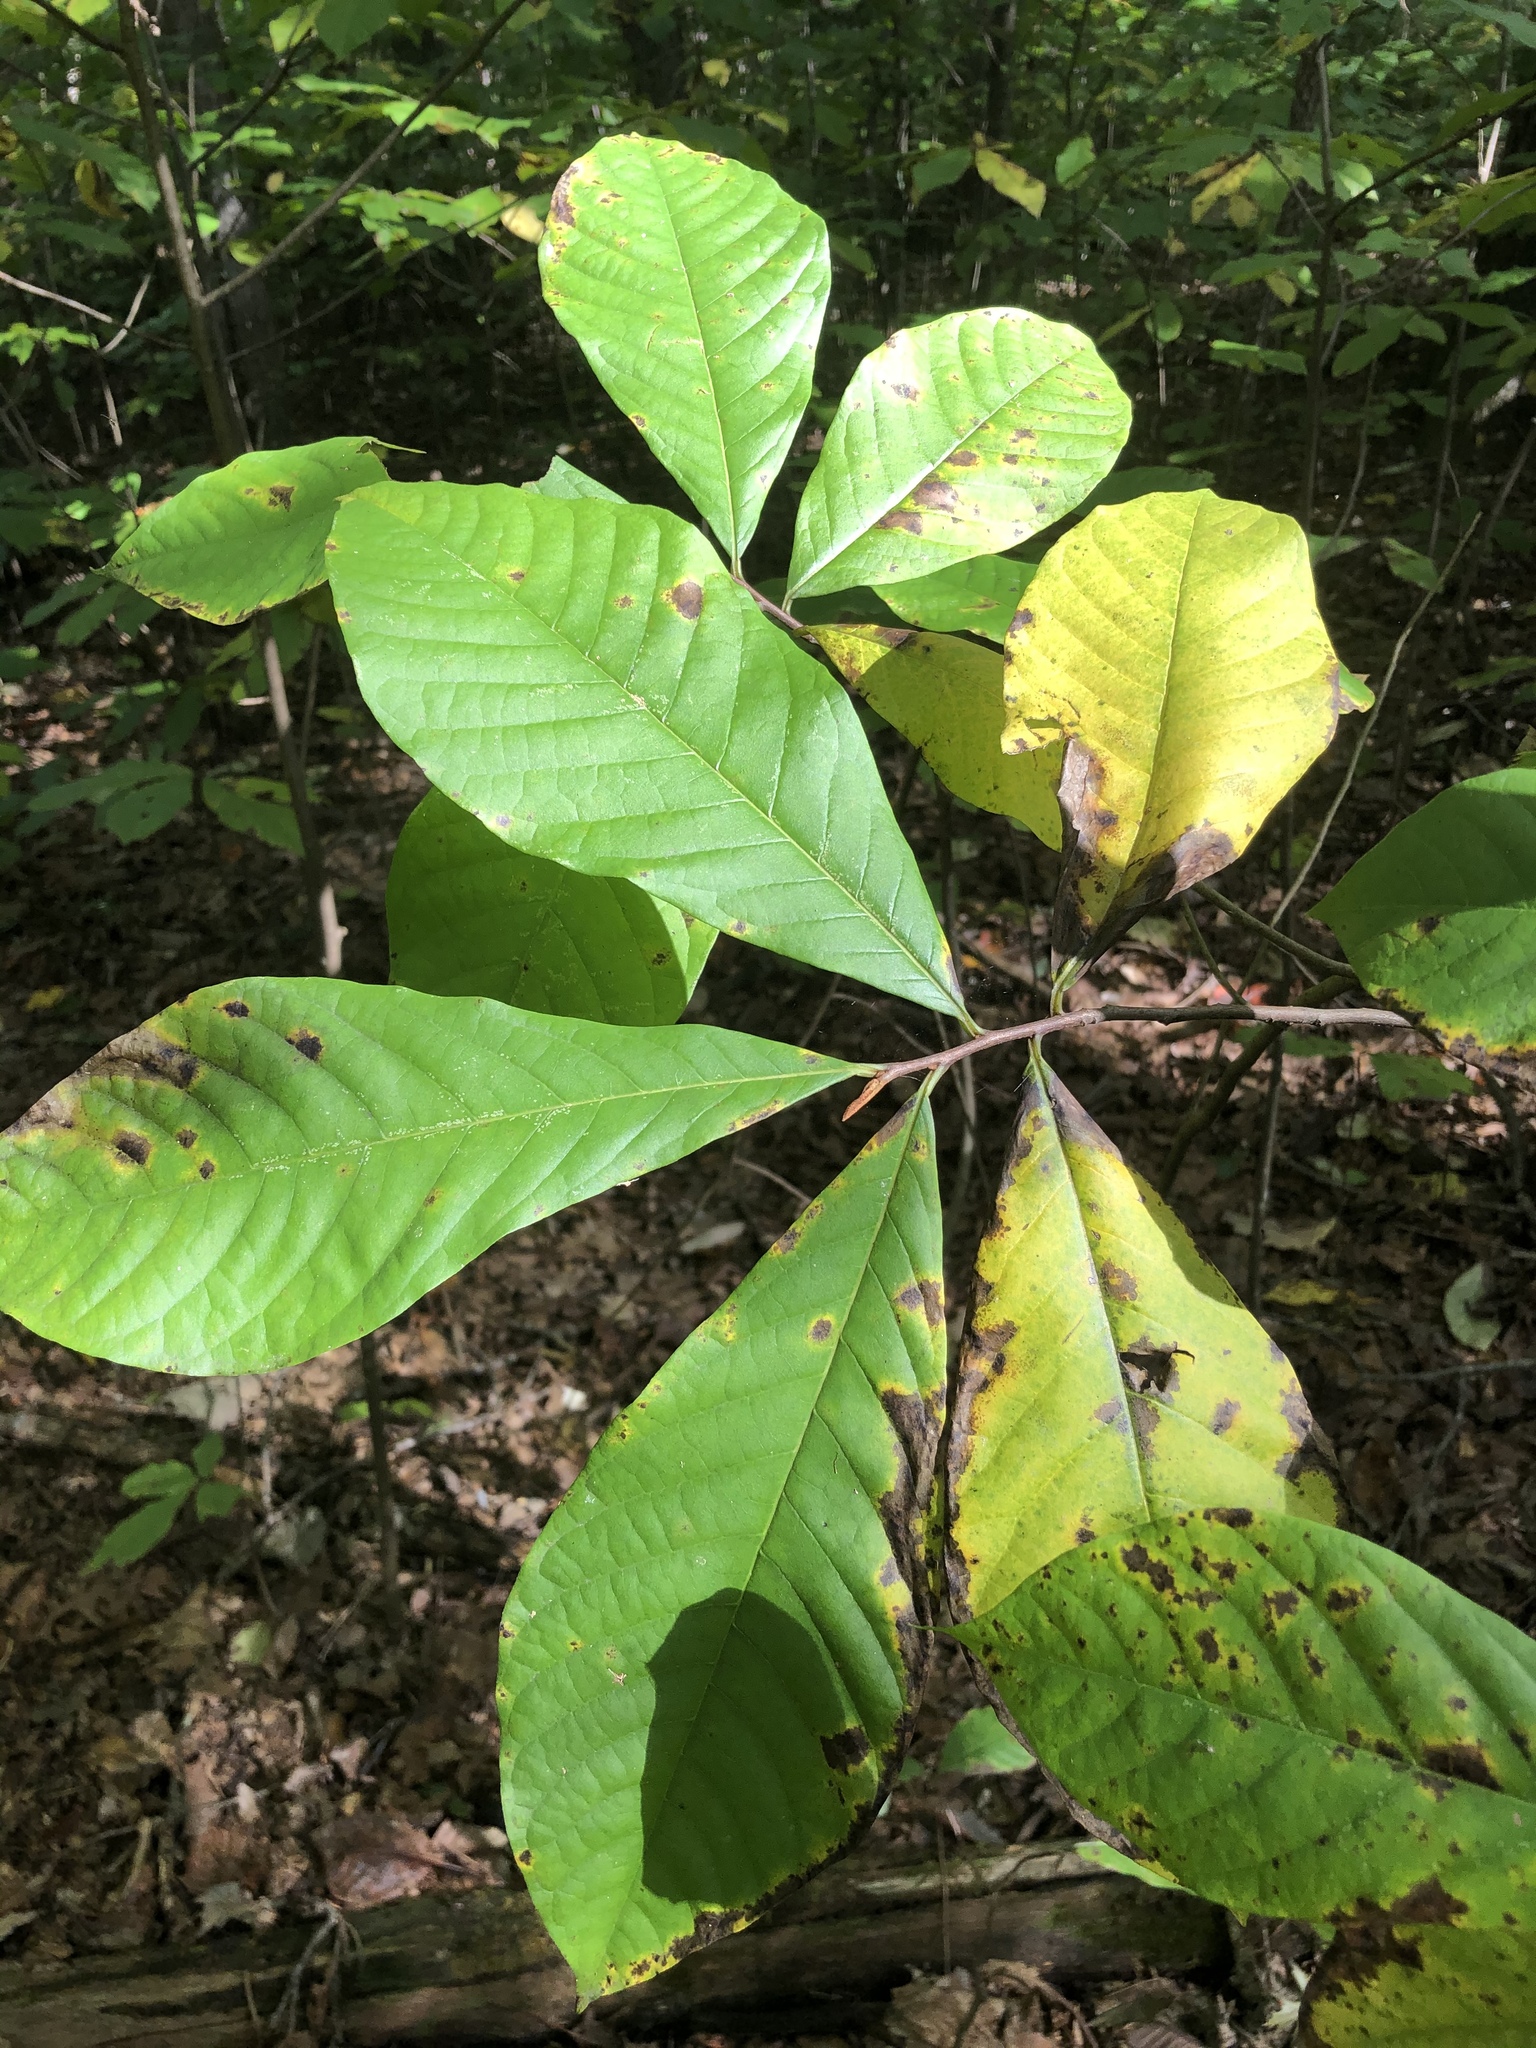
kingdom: Plantae
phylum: Tracheophyta
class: Magnoliopsida
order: Magnoliales
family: Annonaceae
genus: Asimina
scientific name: Asimina triloba
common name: Dog-banana
